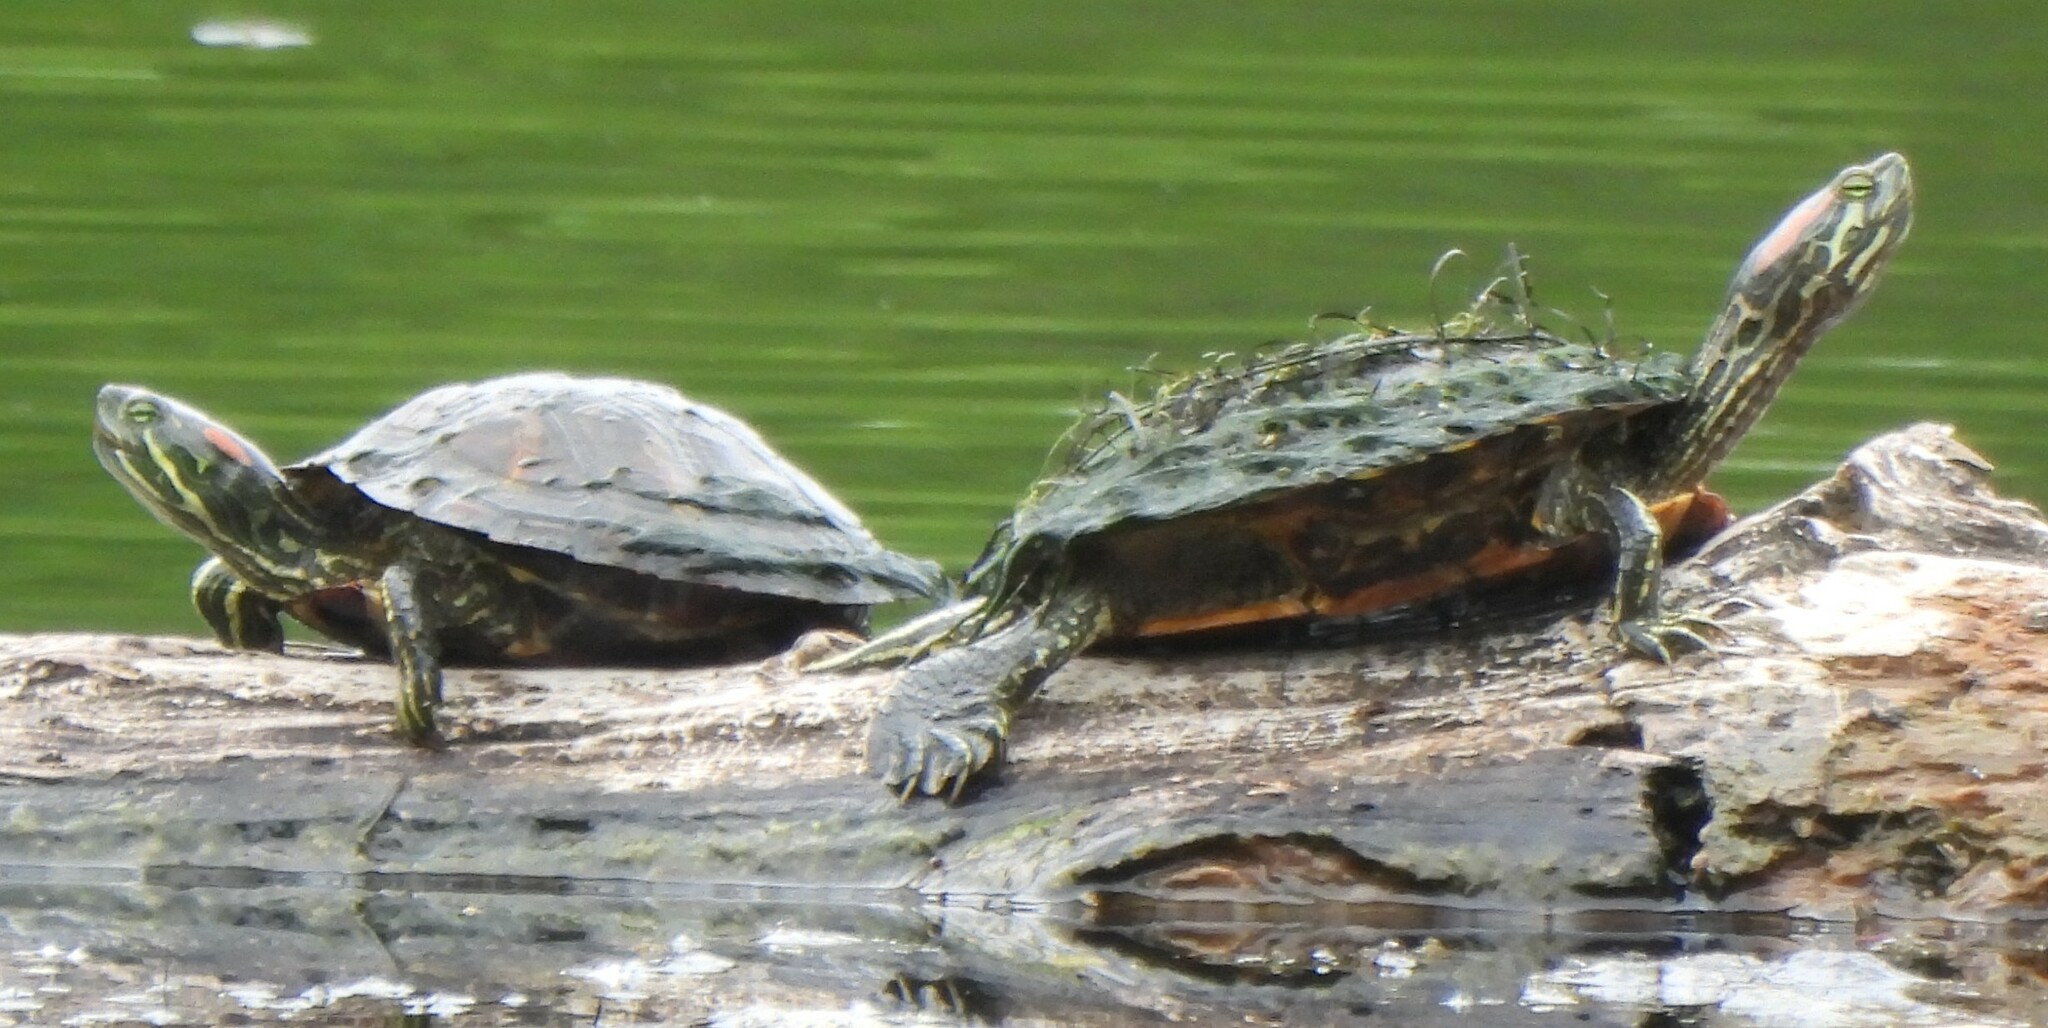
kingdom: Animalia
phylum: Chordata
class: Testudines
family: Emydidae
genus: Trachemys
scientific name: Trachemys scripta
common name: Slider
